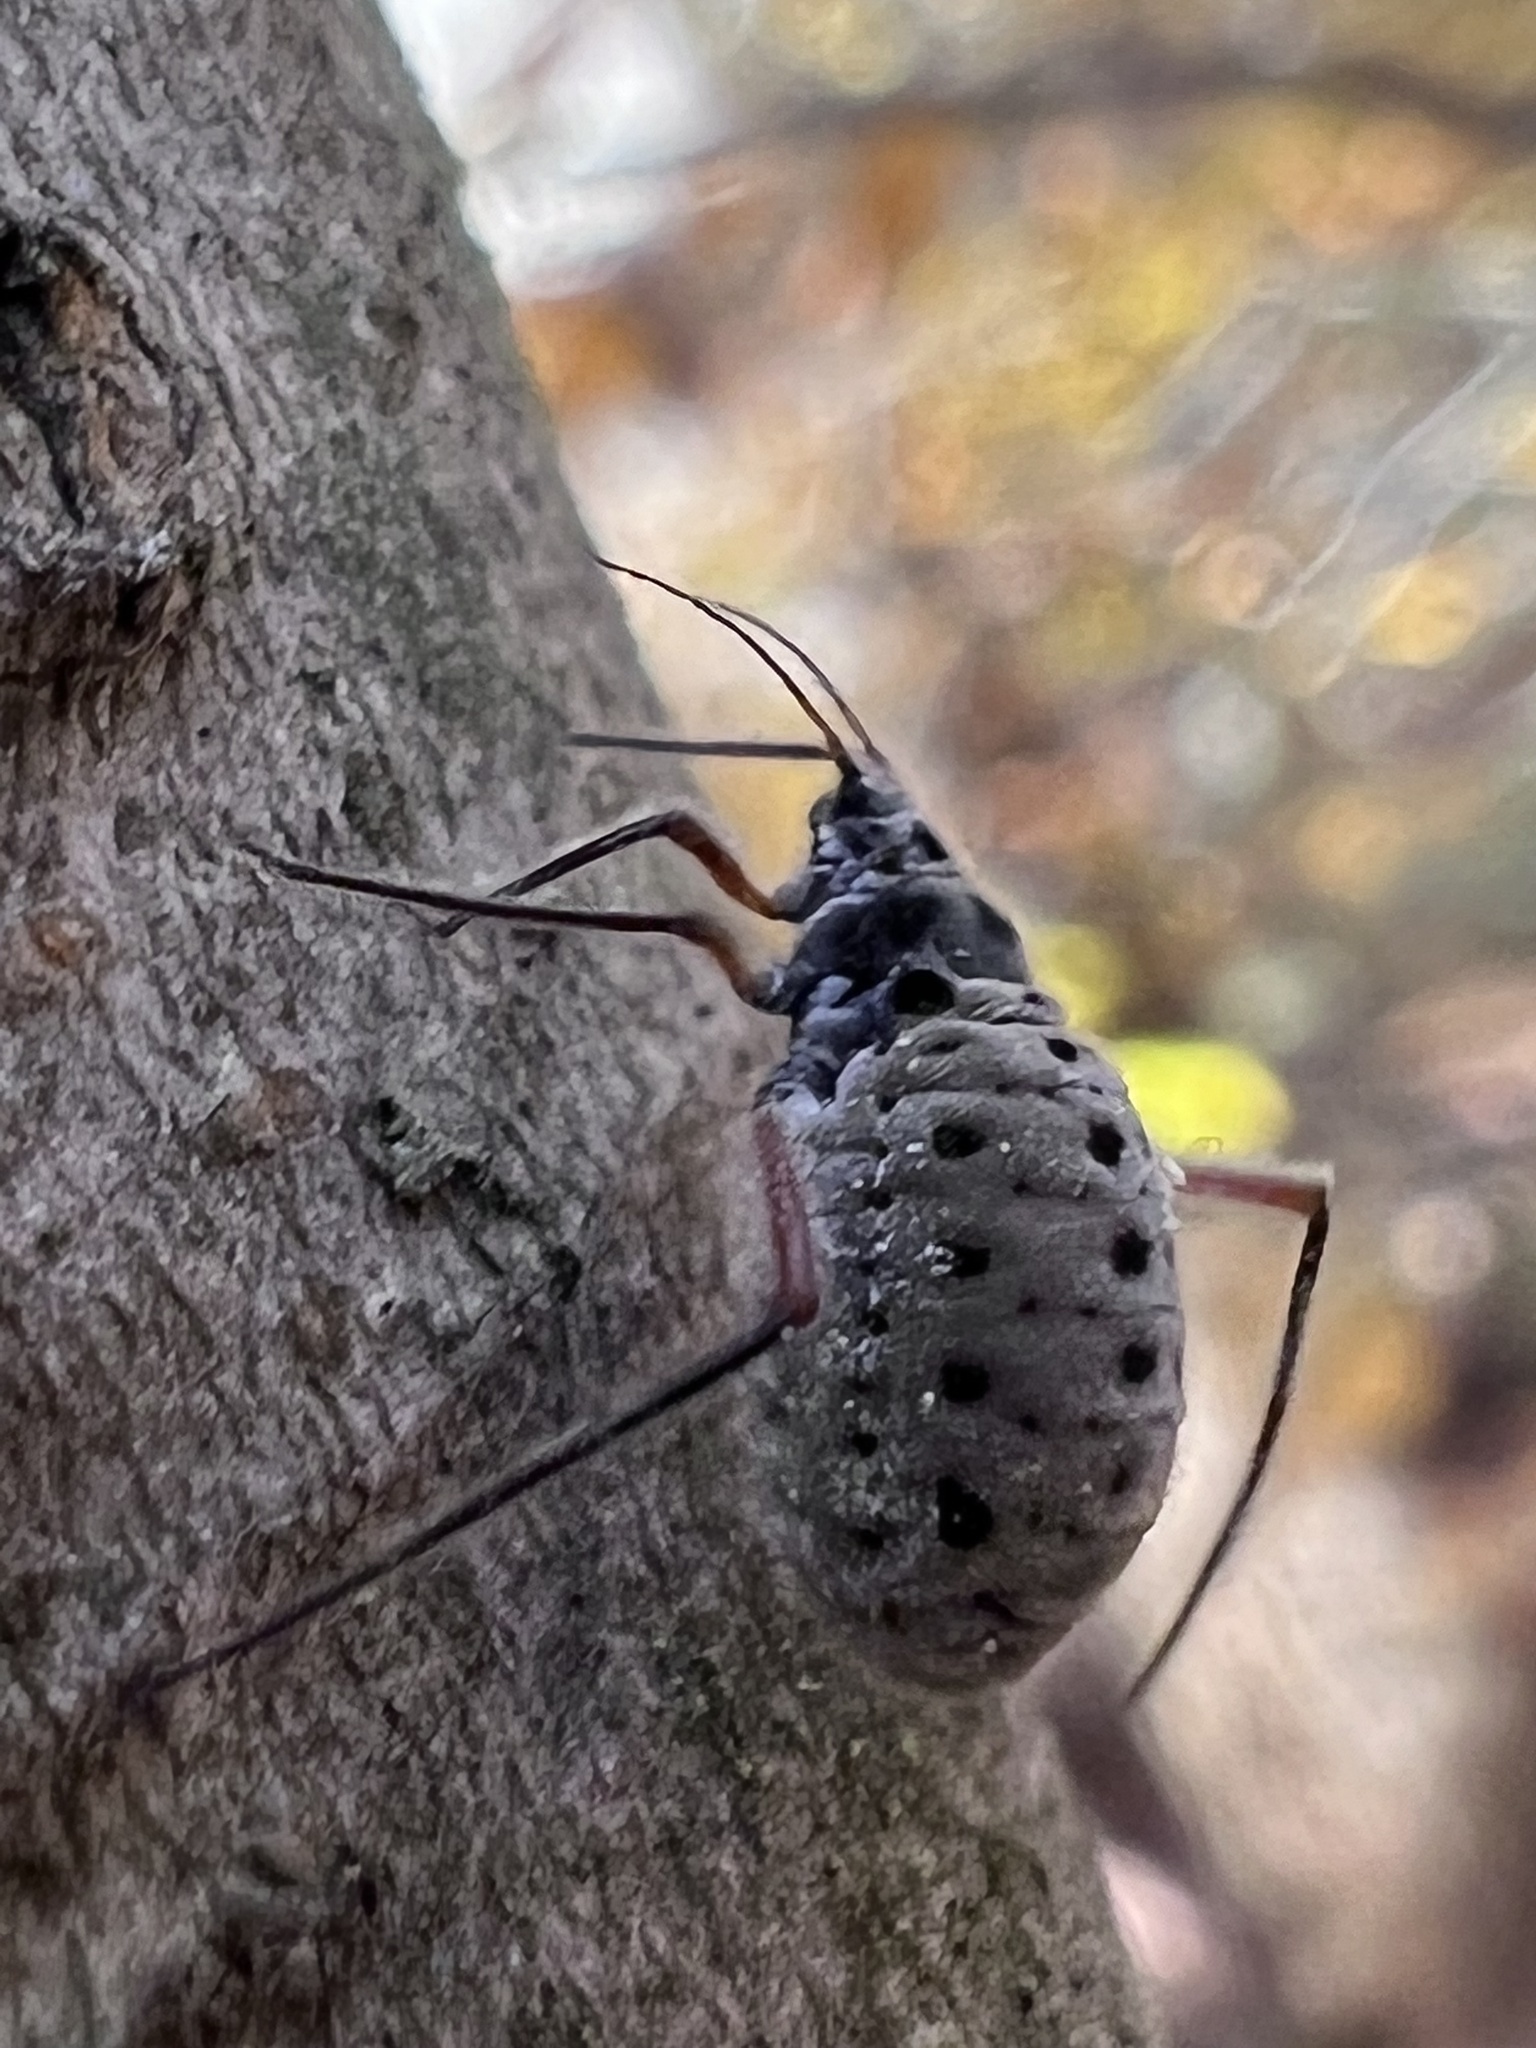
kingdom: Animalia
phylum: Arthropoda
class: Insecta
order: Hemiptera
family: Aphididae
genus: Longistigma
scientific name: Longistigma caryae
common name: Giant bark aphid
